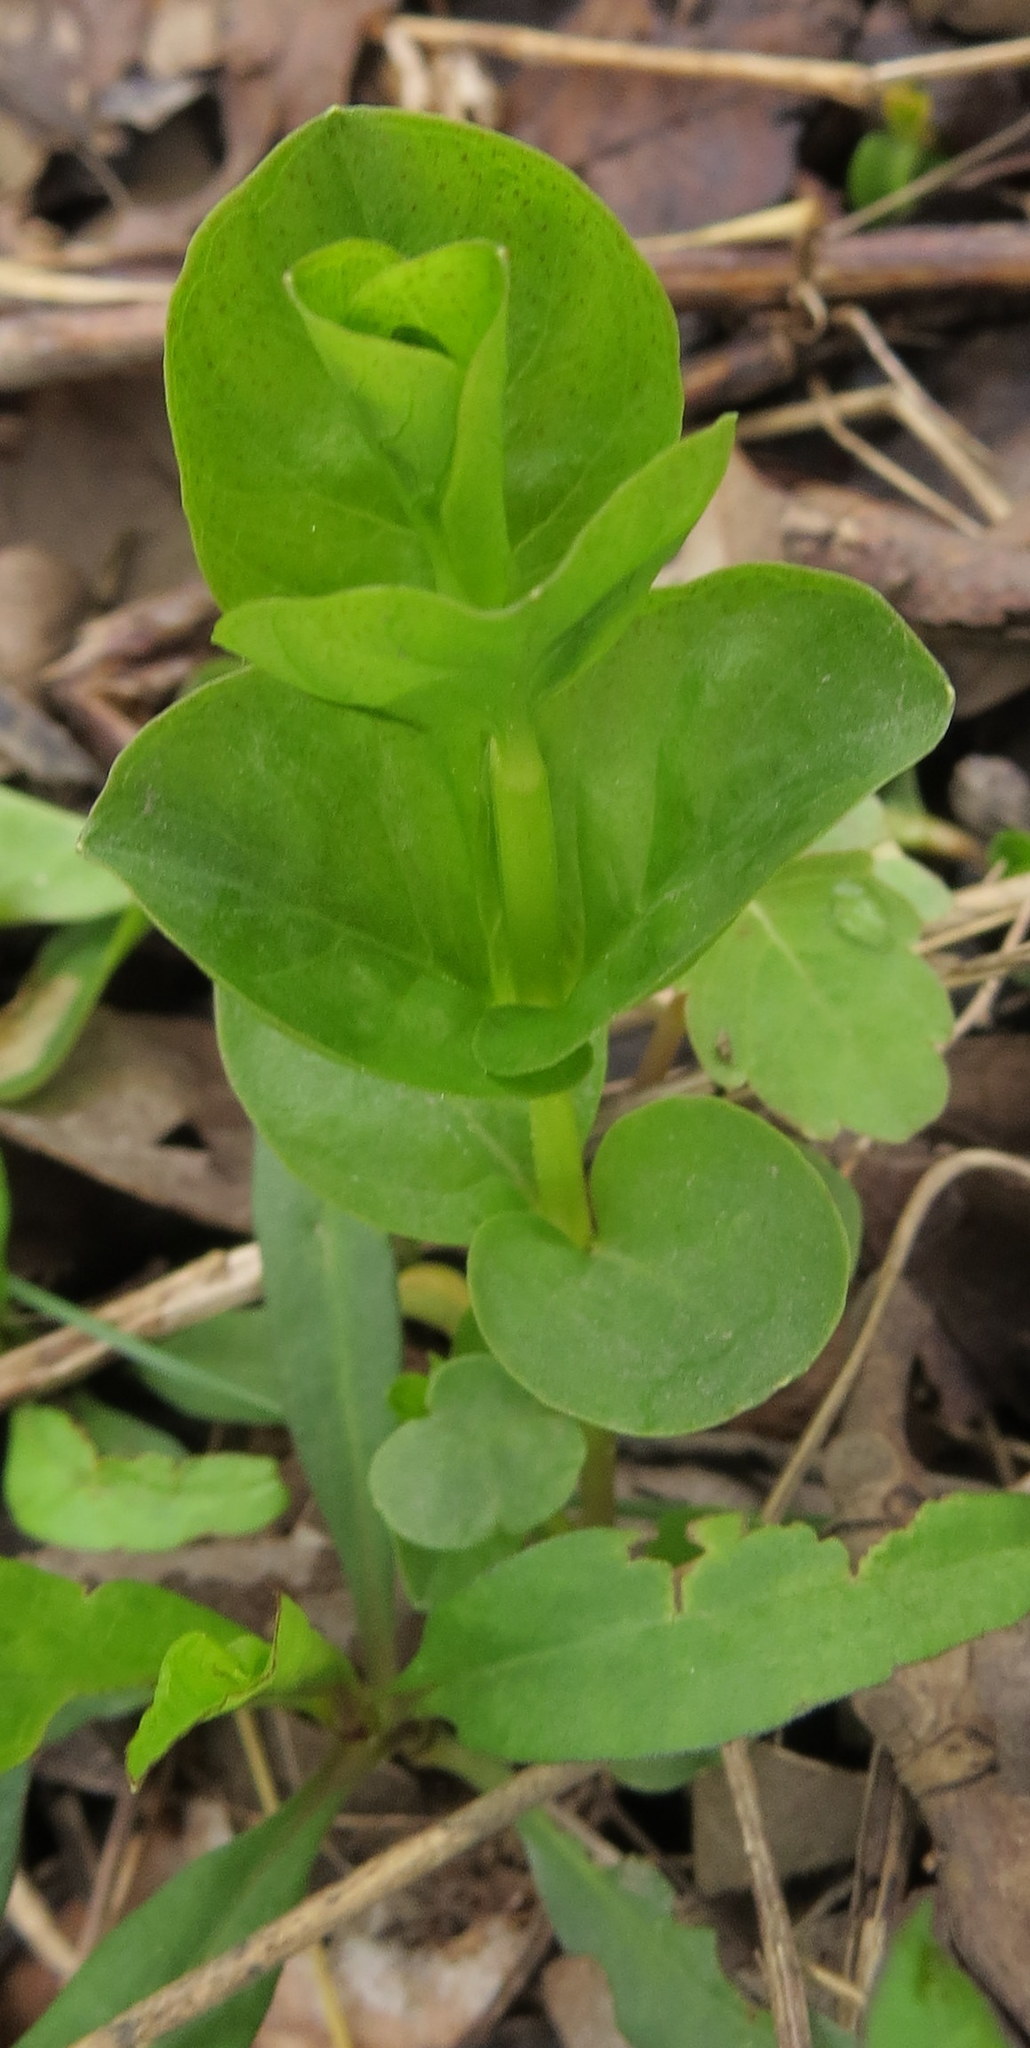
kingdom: Plantae
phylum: Tracheophyta
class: Magnoliopsida
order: Ericales
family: Primulaceae
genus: Lysimachia
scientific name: Lysimachia nummularia
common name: Moneywort
